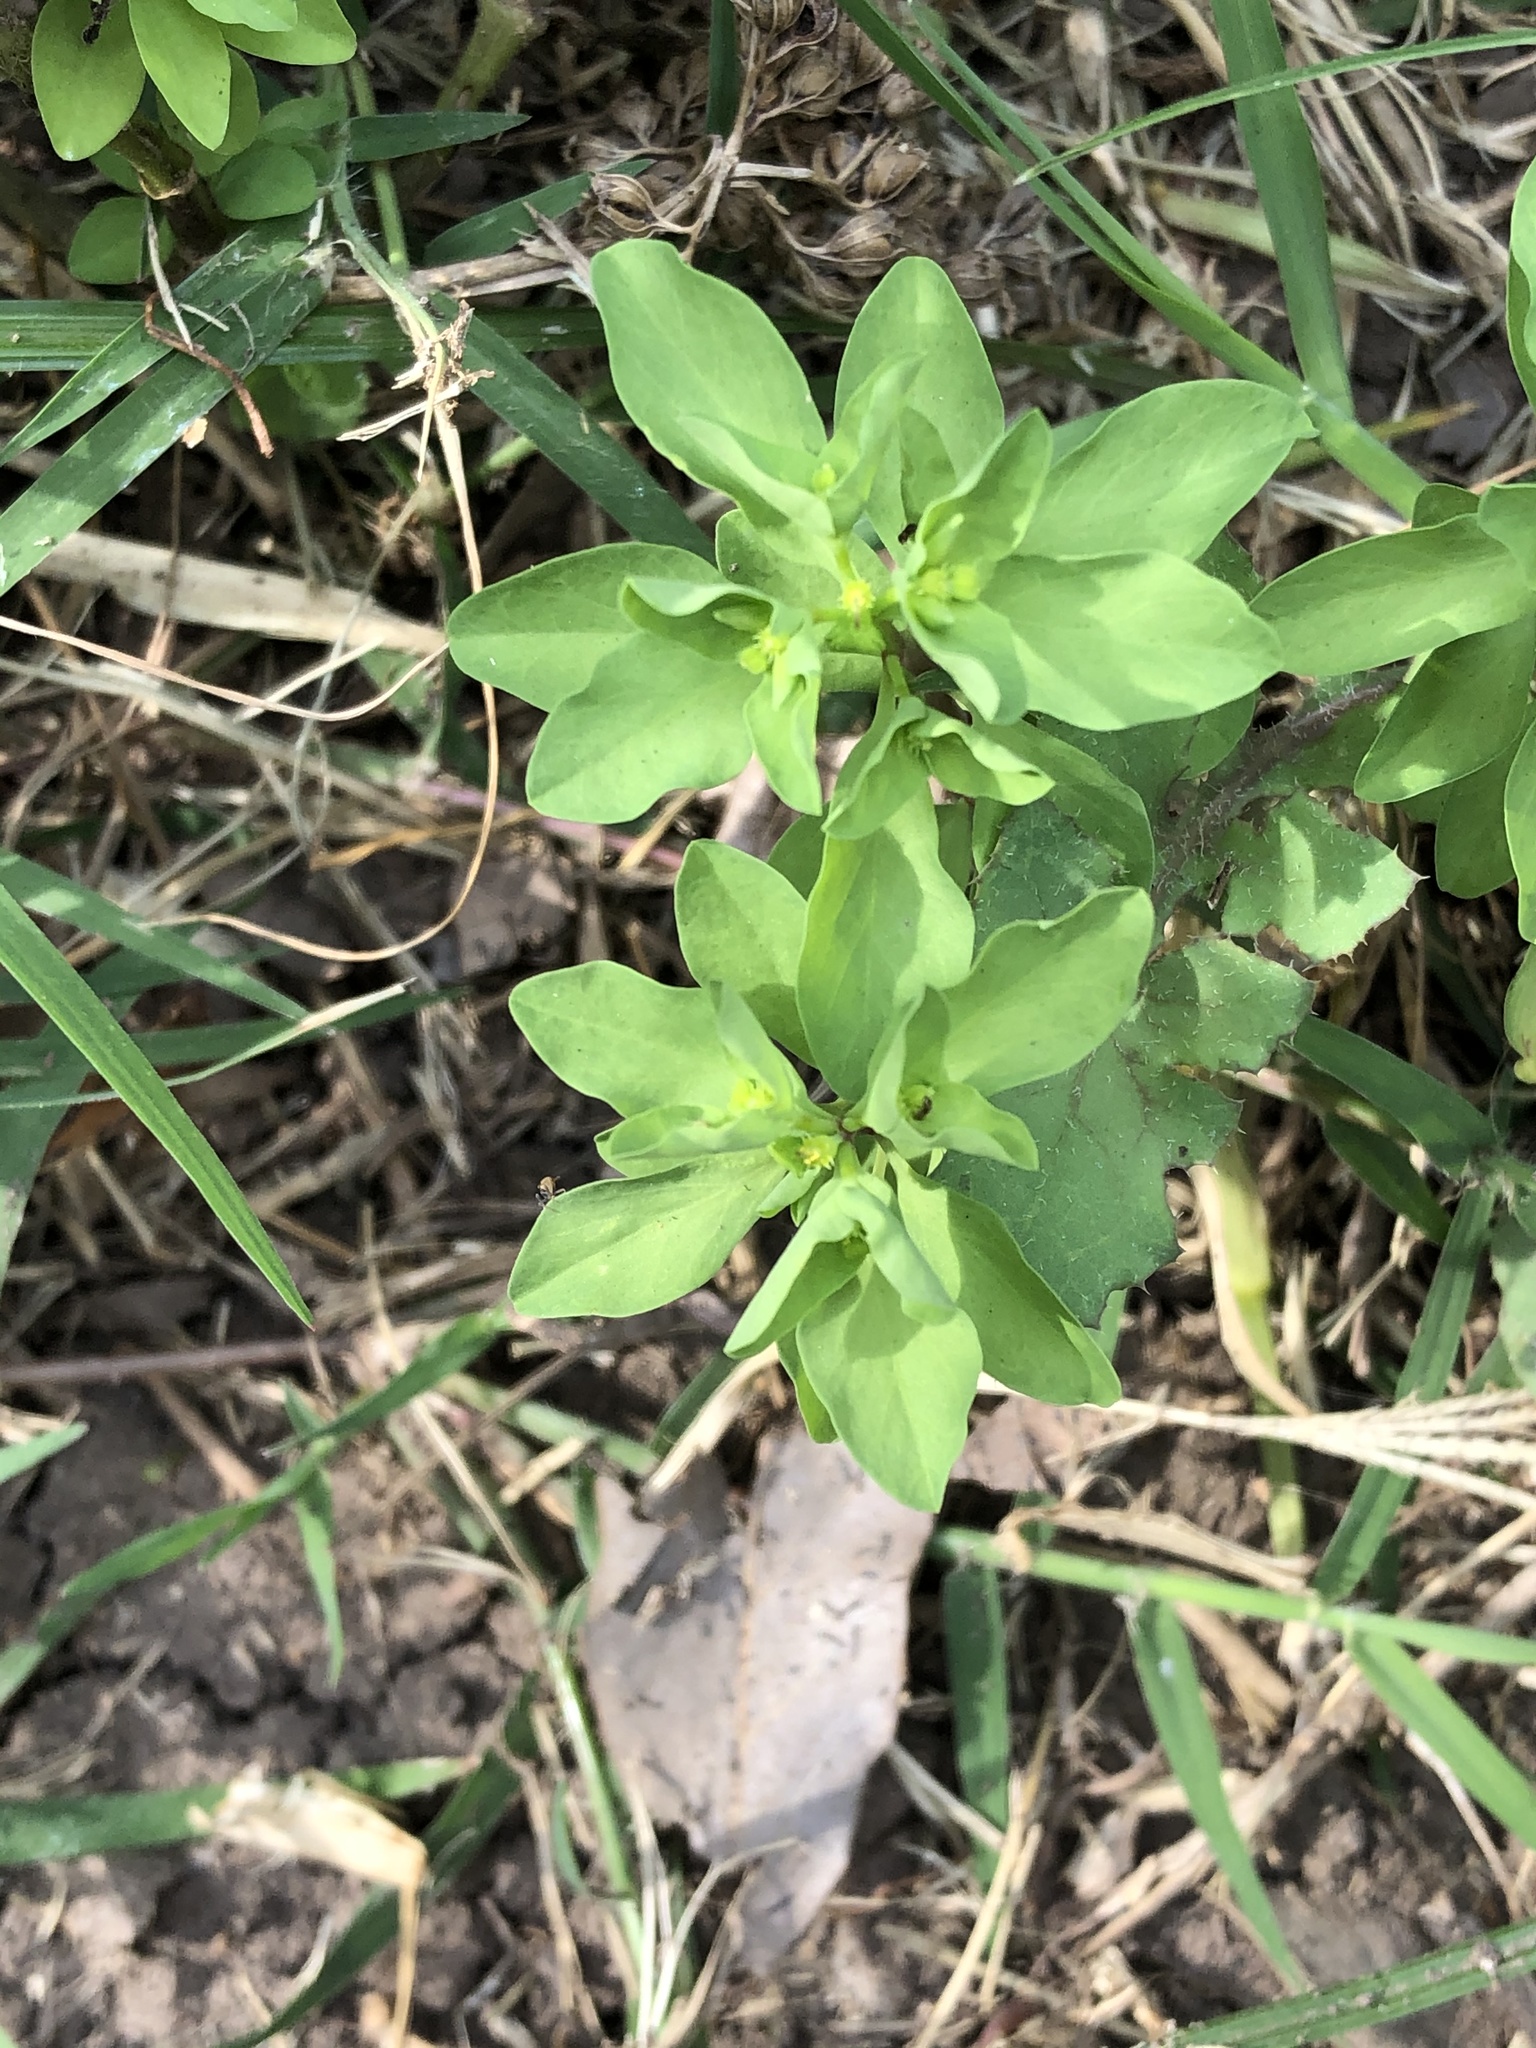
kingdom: Plantae
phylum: Tracheophyta
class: Magnoliopsida
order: Malpighiales
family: Euphorbiaceae
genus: Euphorbia
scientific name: Euphorbia peplus
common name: Petty spurge
